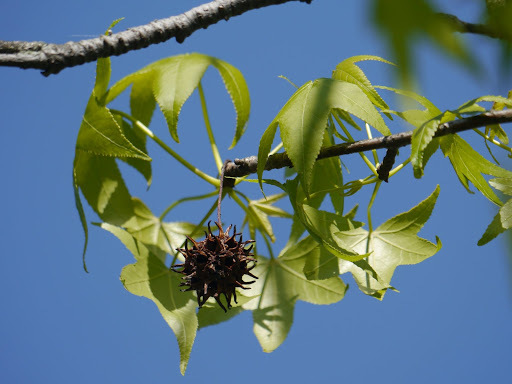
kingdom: Plantae
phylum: Tracheophyta
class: Magnoliopsida
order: Saxifragales
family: Altingiaceae
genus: Liquidambar
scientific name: Liquidambar styraciflua
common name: Sweet gum
